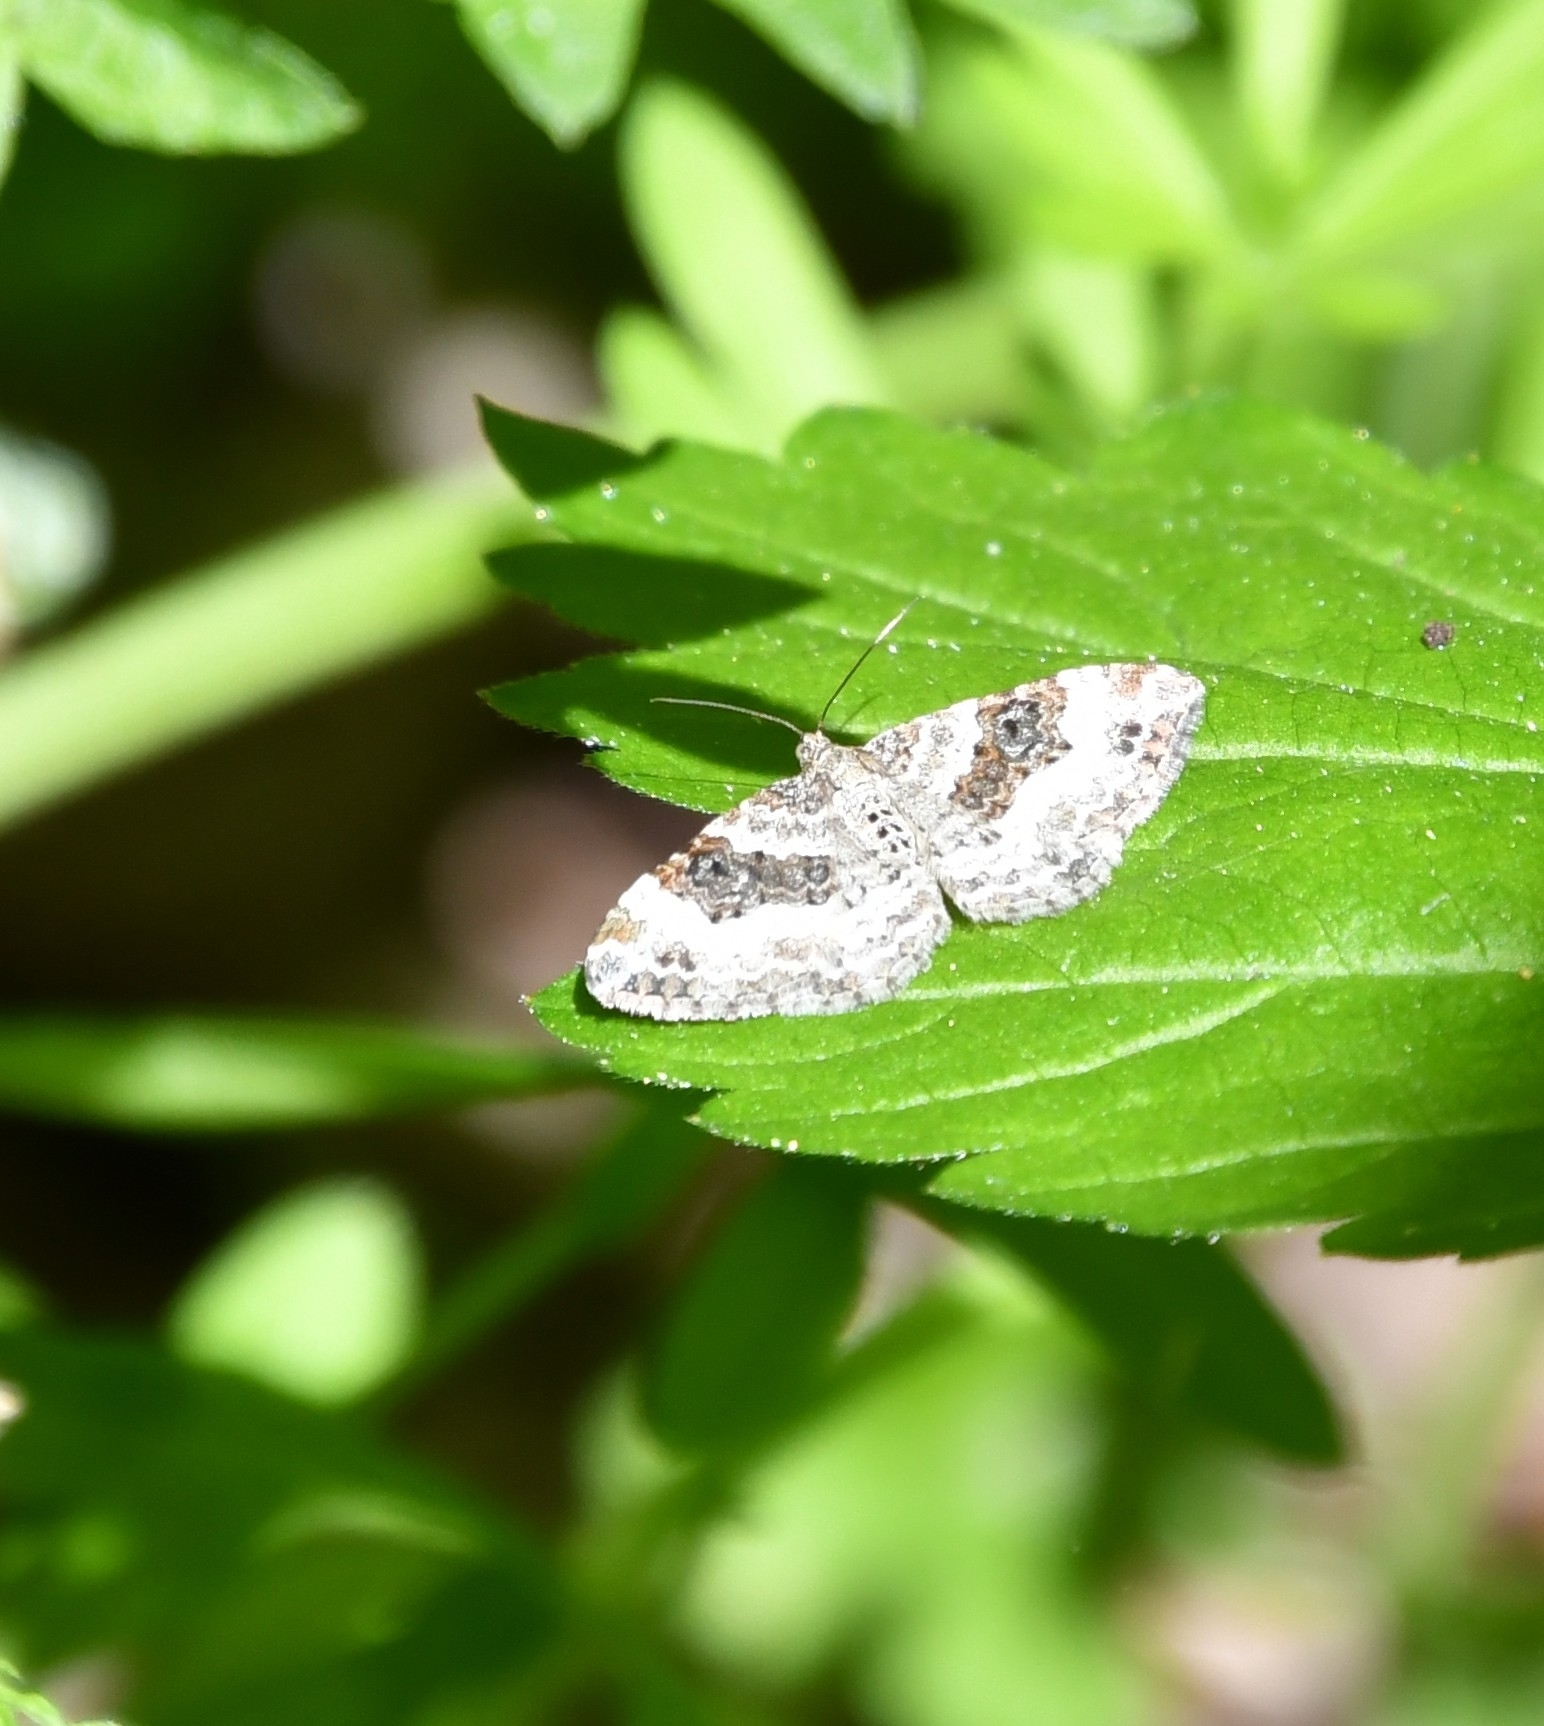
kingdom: Animalia
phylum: Arthropoda
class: Insecta
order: Lepidoptera
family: Geometridae
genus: Epirrhoe
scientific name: Epirrhoe alternata
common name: Common carpet
